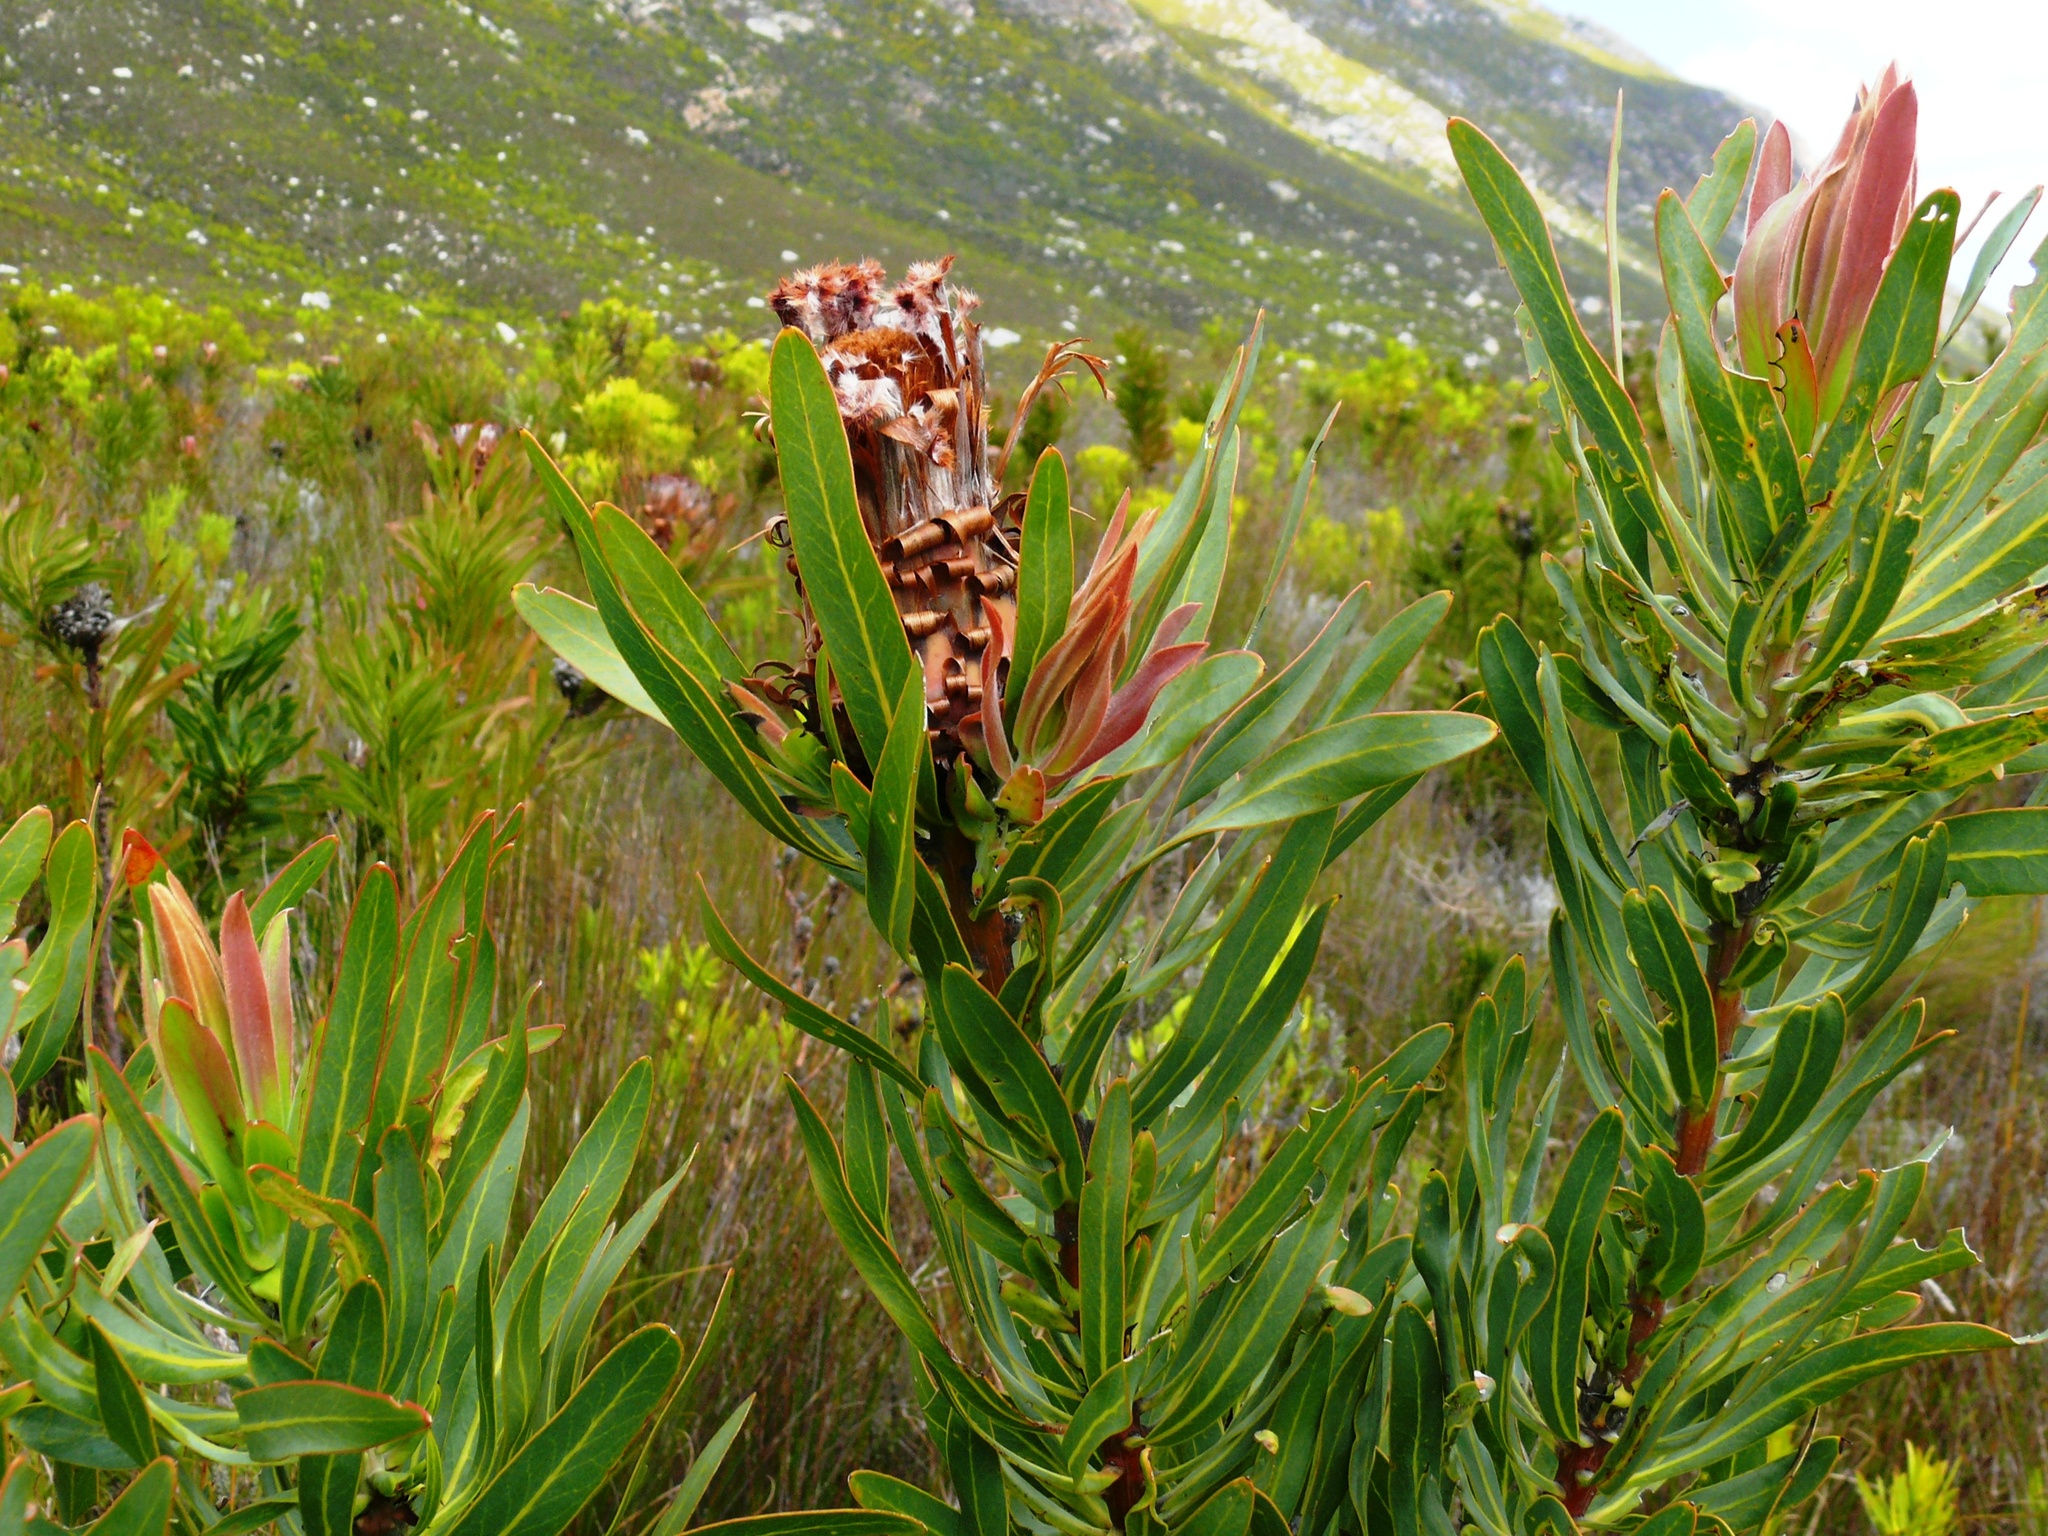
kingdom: Plantae
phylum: Tracheophyta
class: Magnoliopsida
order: Proteales
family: Proteaceae
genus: Protea
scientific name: Protea neriifolia
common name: Blue sugarbush
